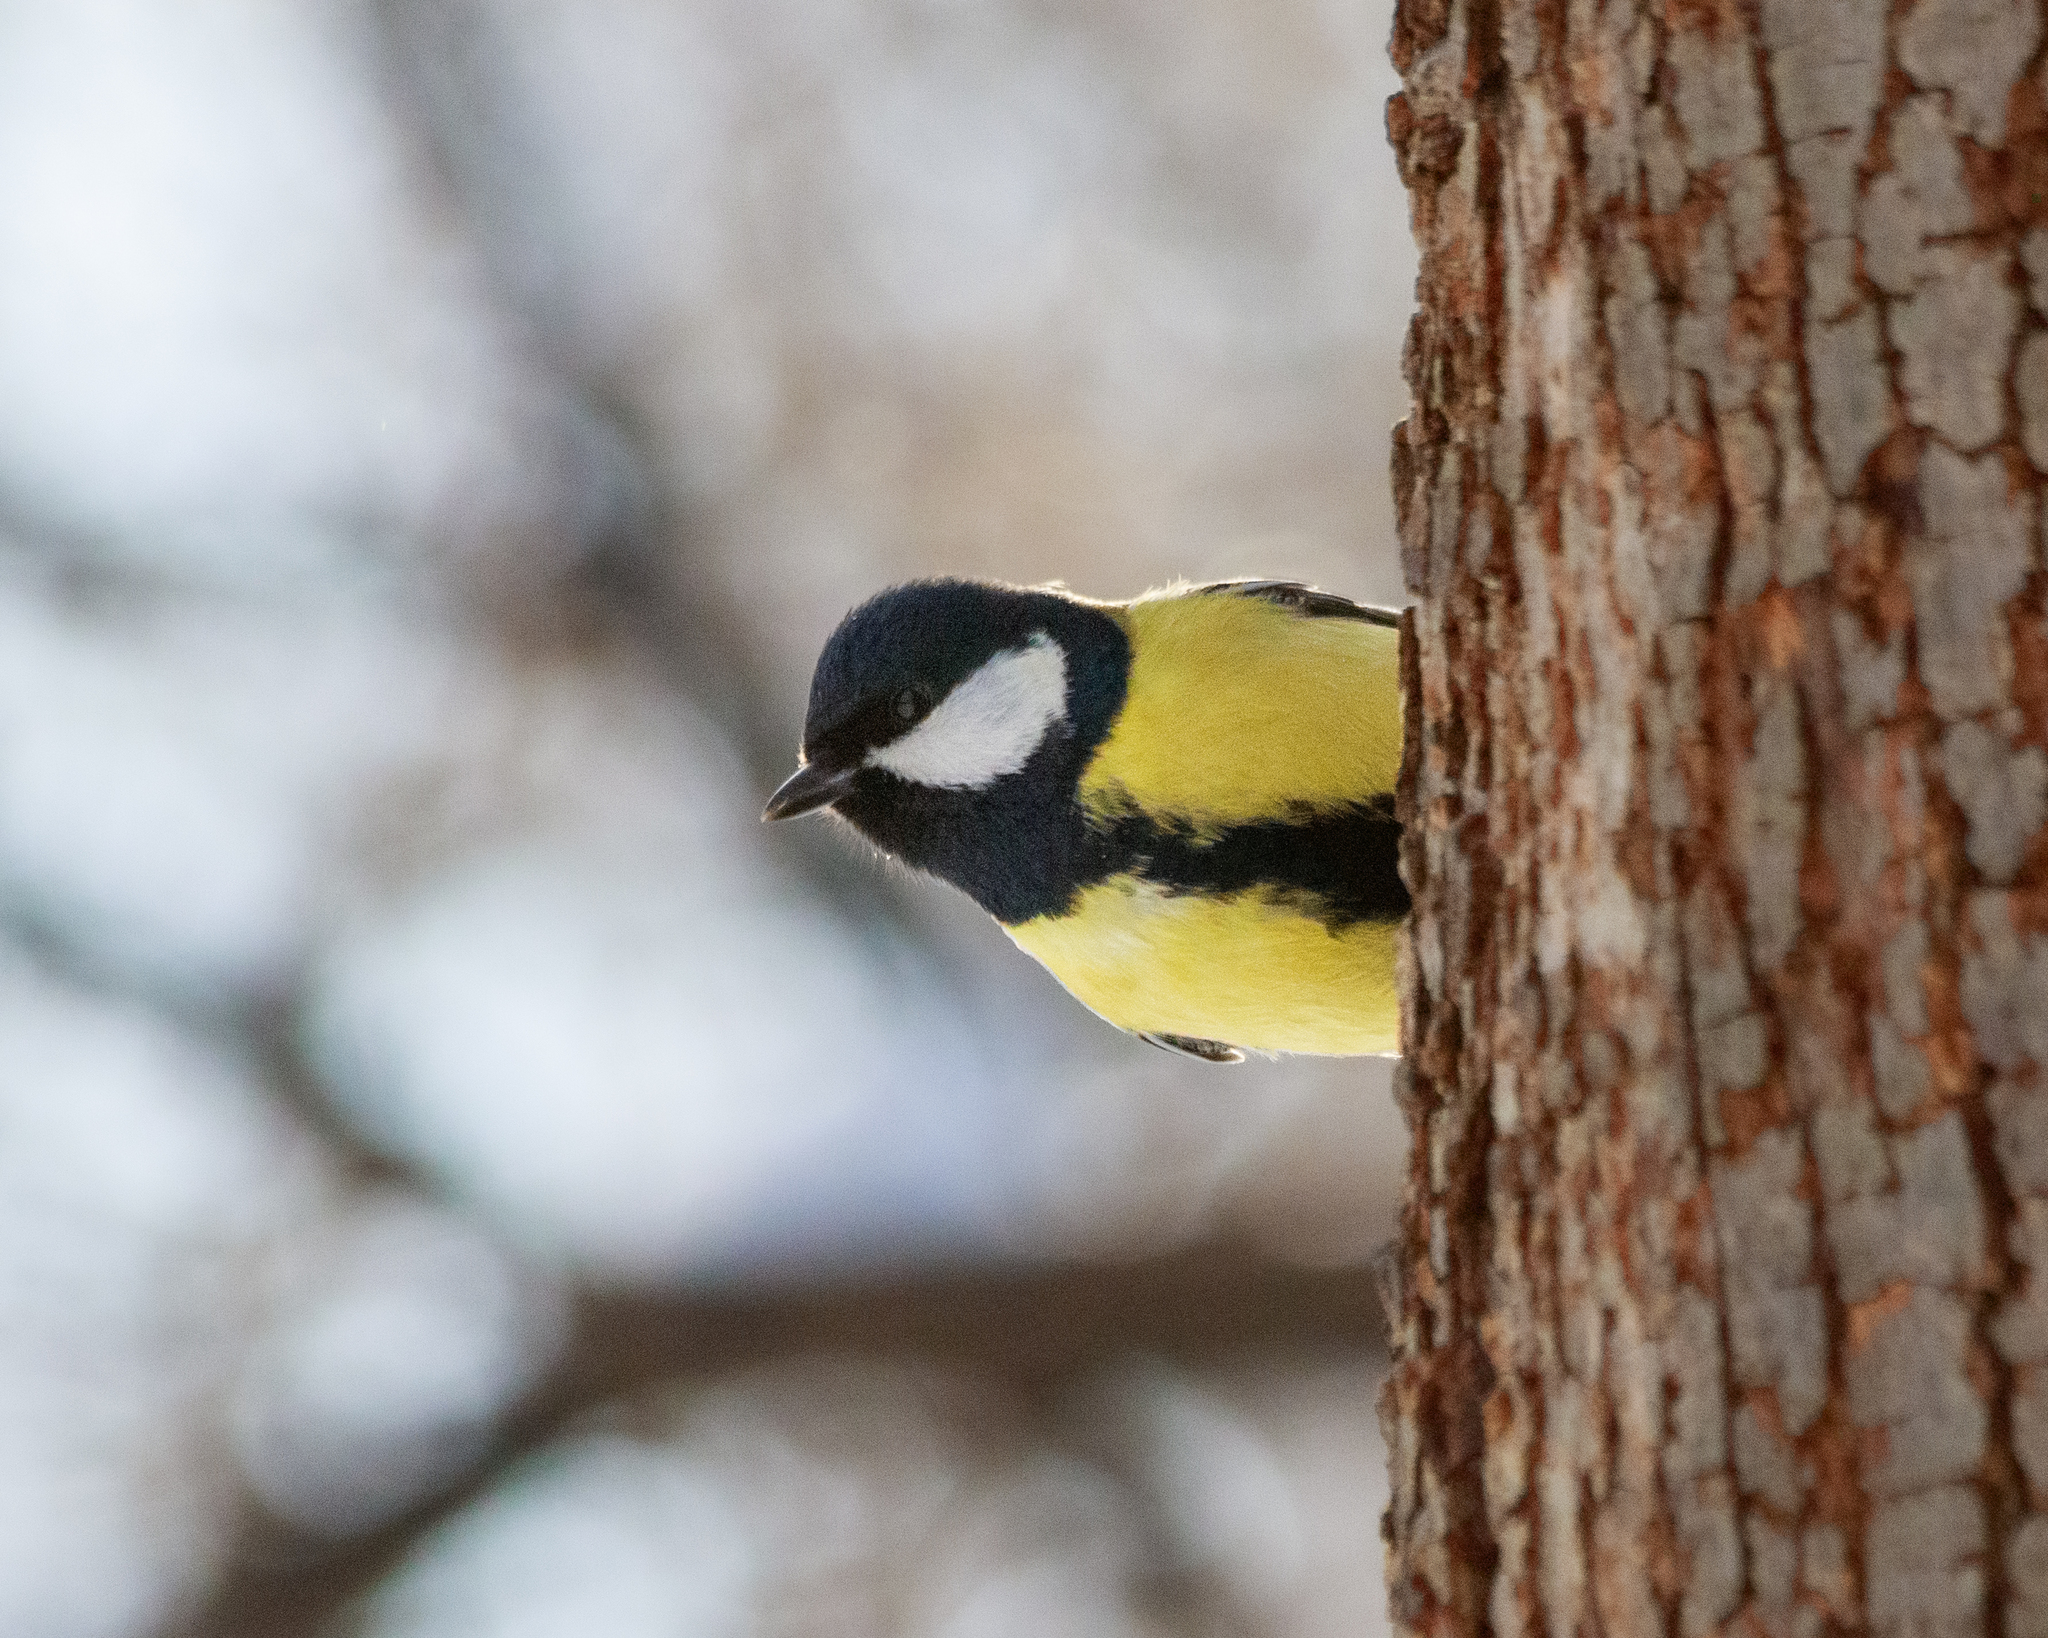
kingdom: Animalia
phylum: Chordata
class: Aves
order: Passeriformes
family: Paridae
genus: Parus
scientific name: Parus major
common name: Great tit
